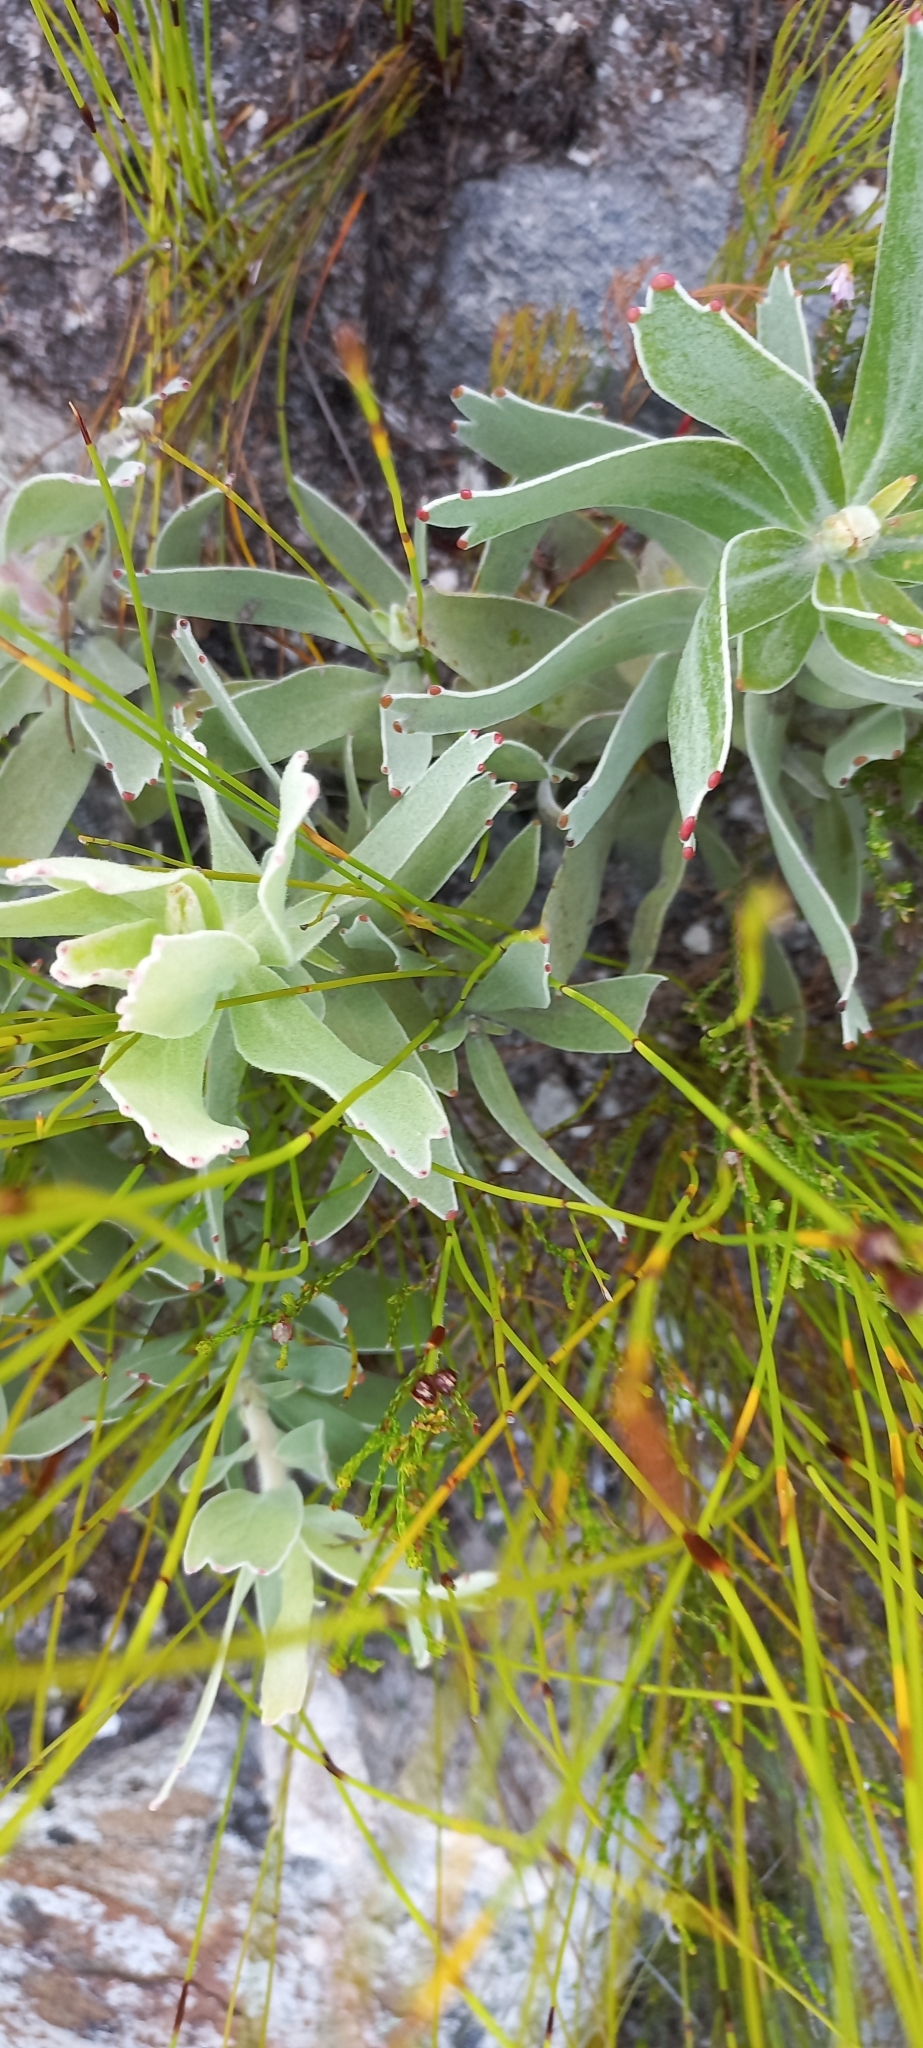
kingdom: Plantae
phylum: Tracheophyta
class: Magnoliopsida
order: Proteales
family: Proteaceae
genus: Leucospermum
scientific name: Leucospermum cordifolium
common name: Red pincushion-protea
